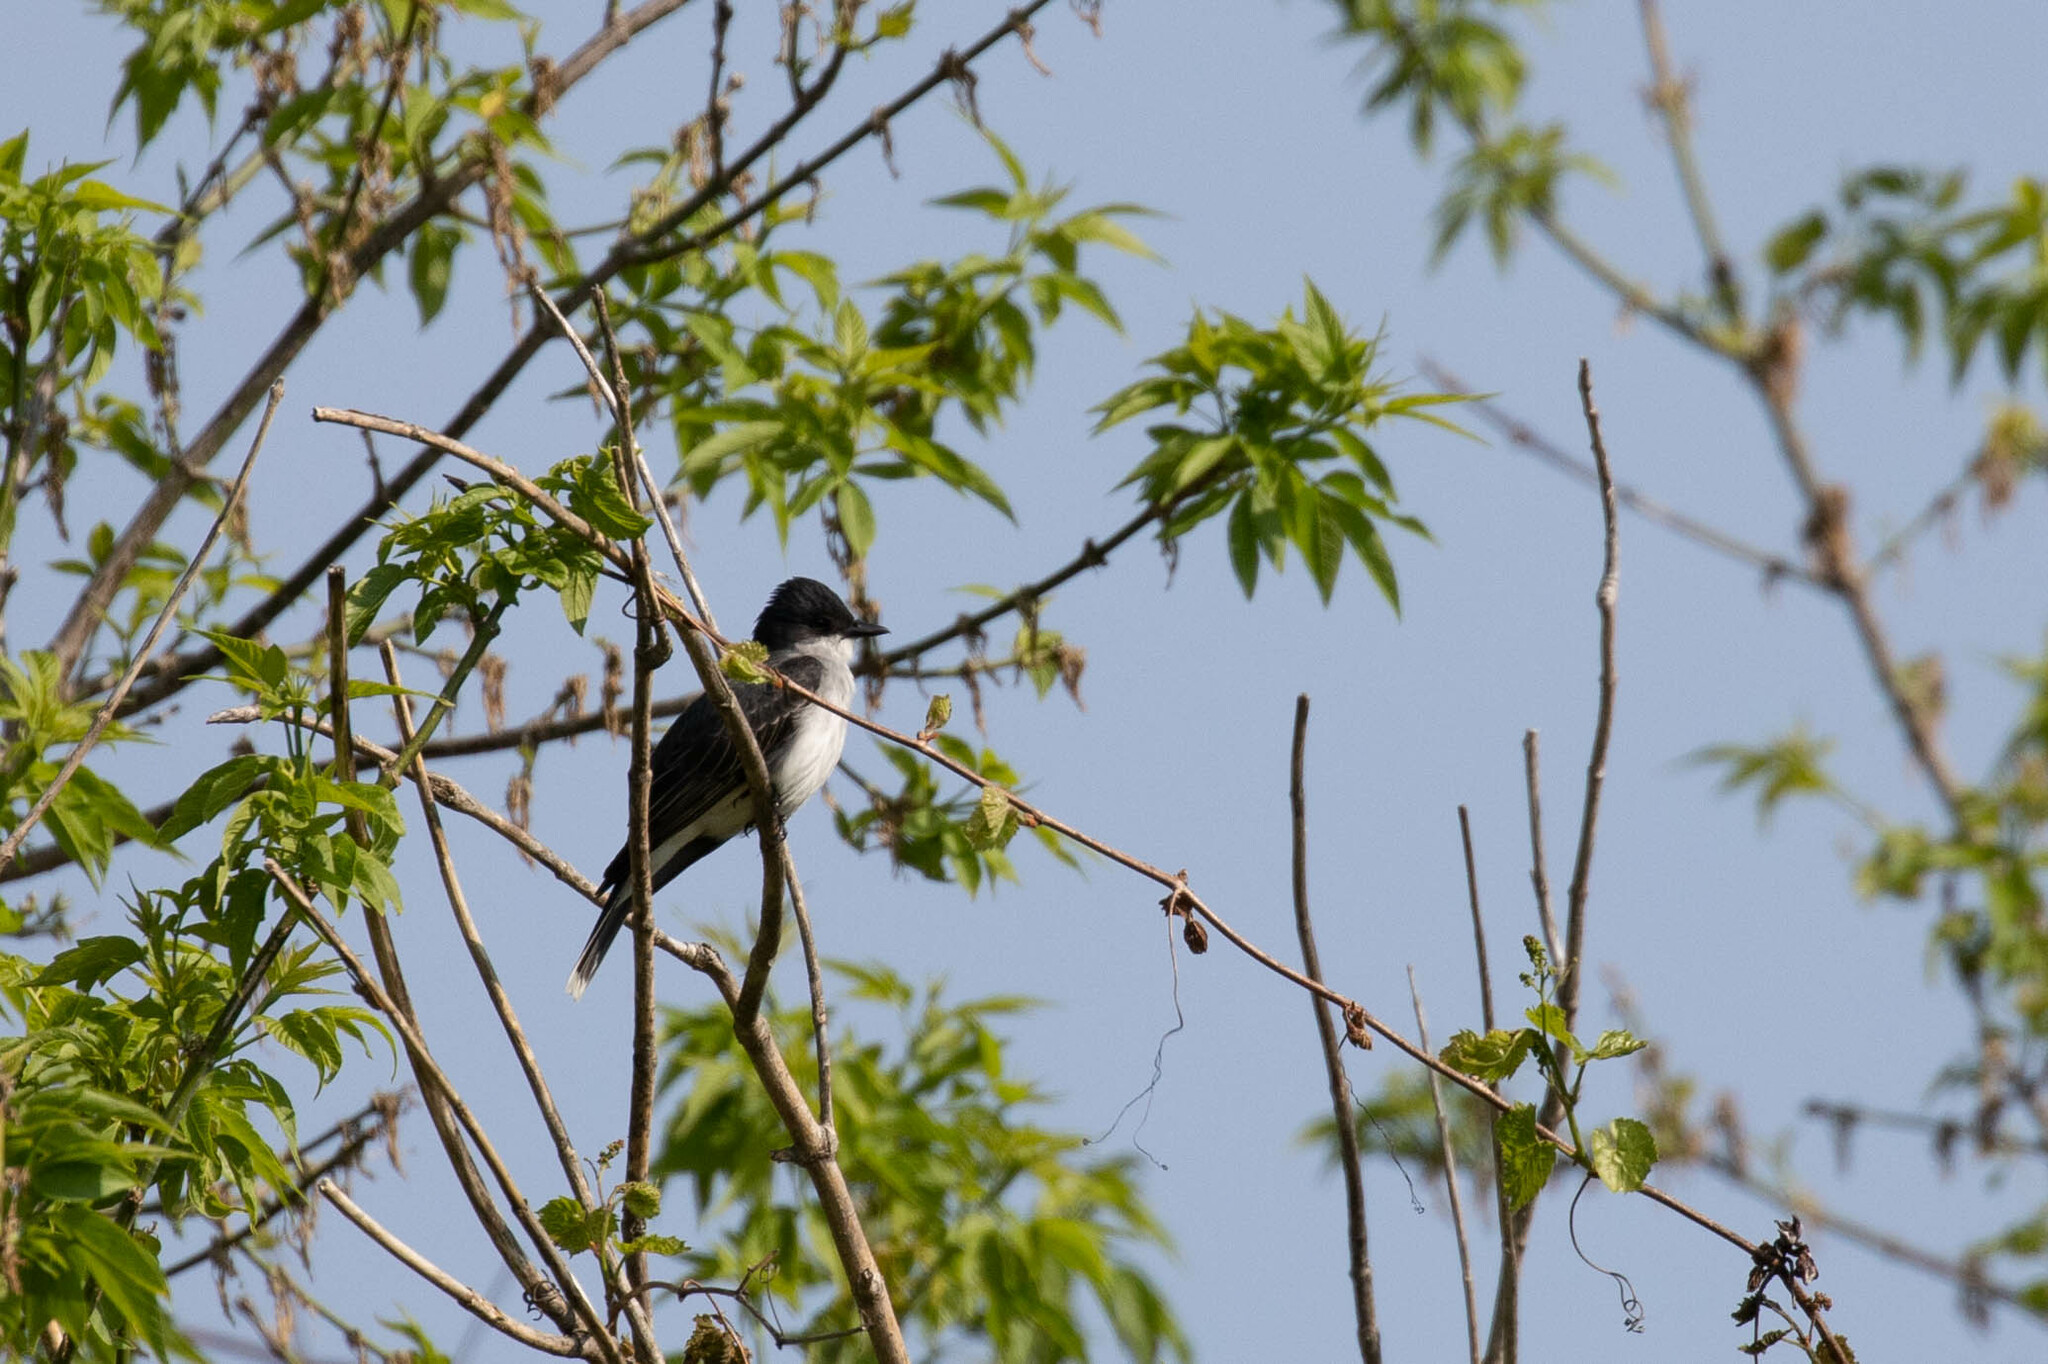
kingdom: Animalia
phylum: Chordata
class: Aves
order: Passeriformes
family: Tyrannidae
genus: Tyrannus
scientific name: Tyrannus tyrannus
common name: Eastern kingbird
